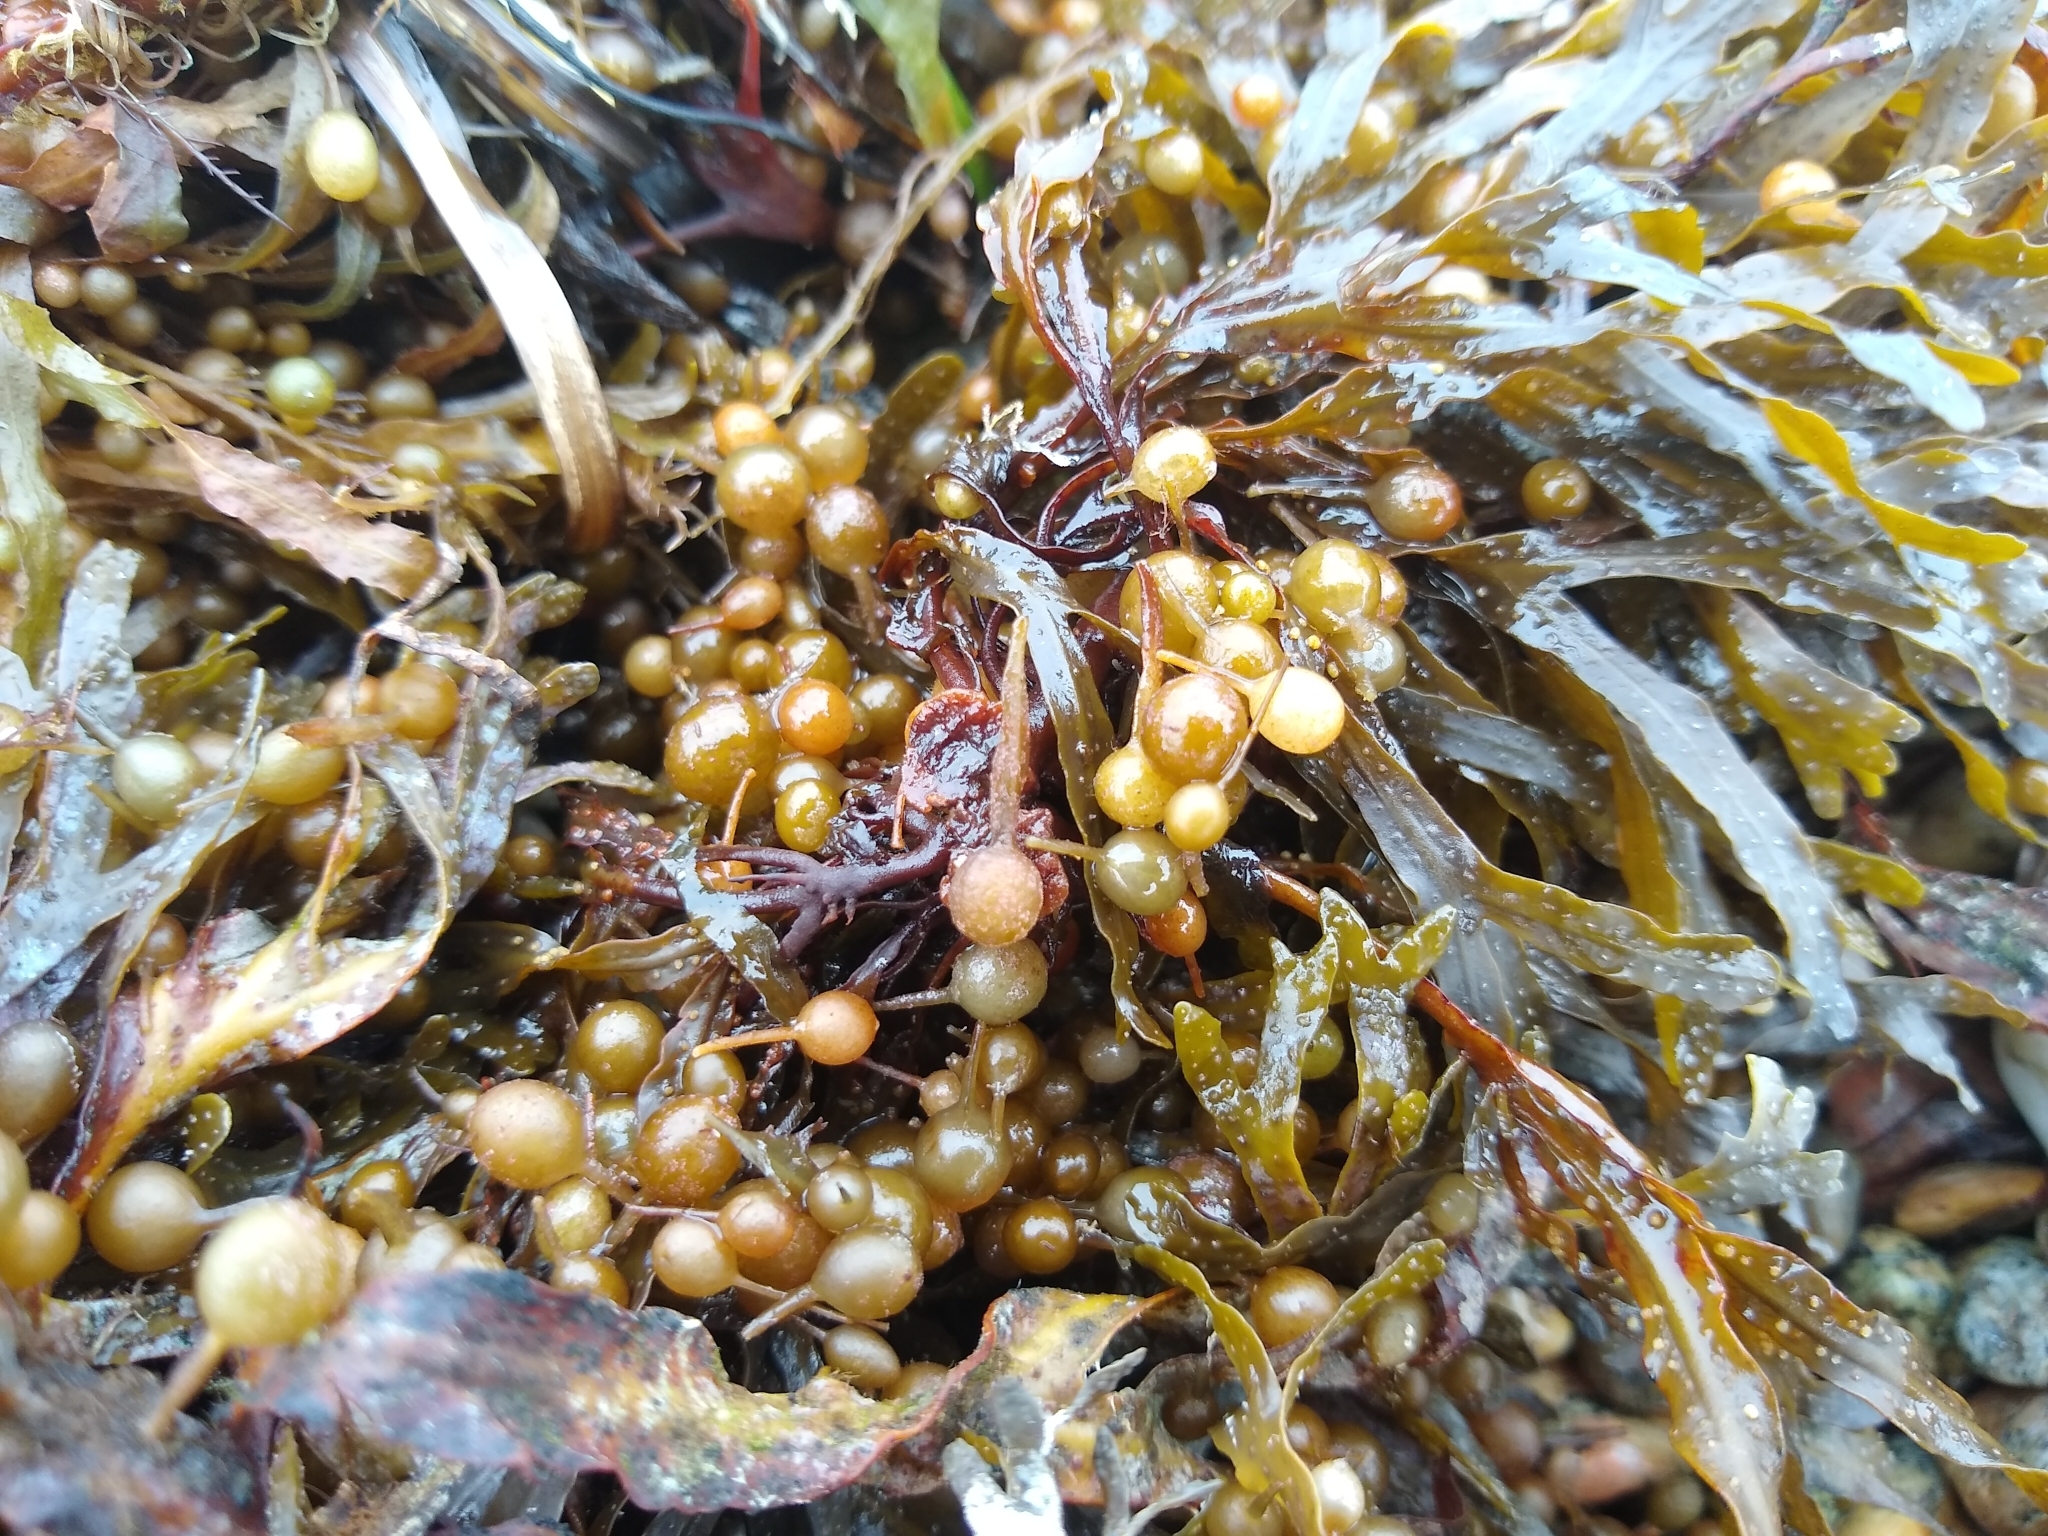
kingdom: Chromista
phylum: Ochrophyta
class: Phaeophyceae
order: Fucales
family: Sargassaceae
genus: Sargassum
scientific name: Sargassum fluitans
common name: Sargassum seaweed
